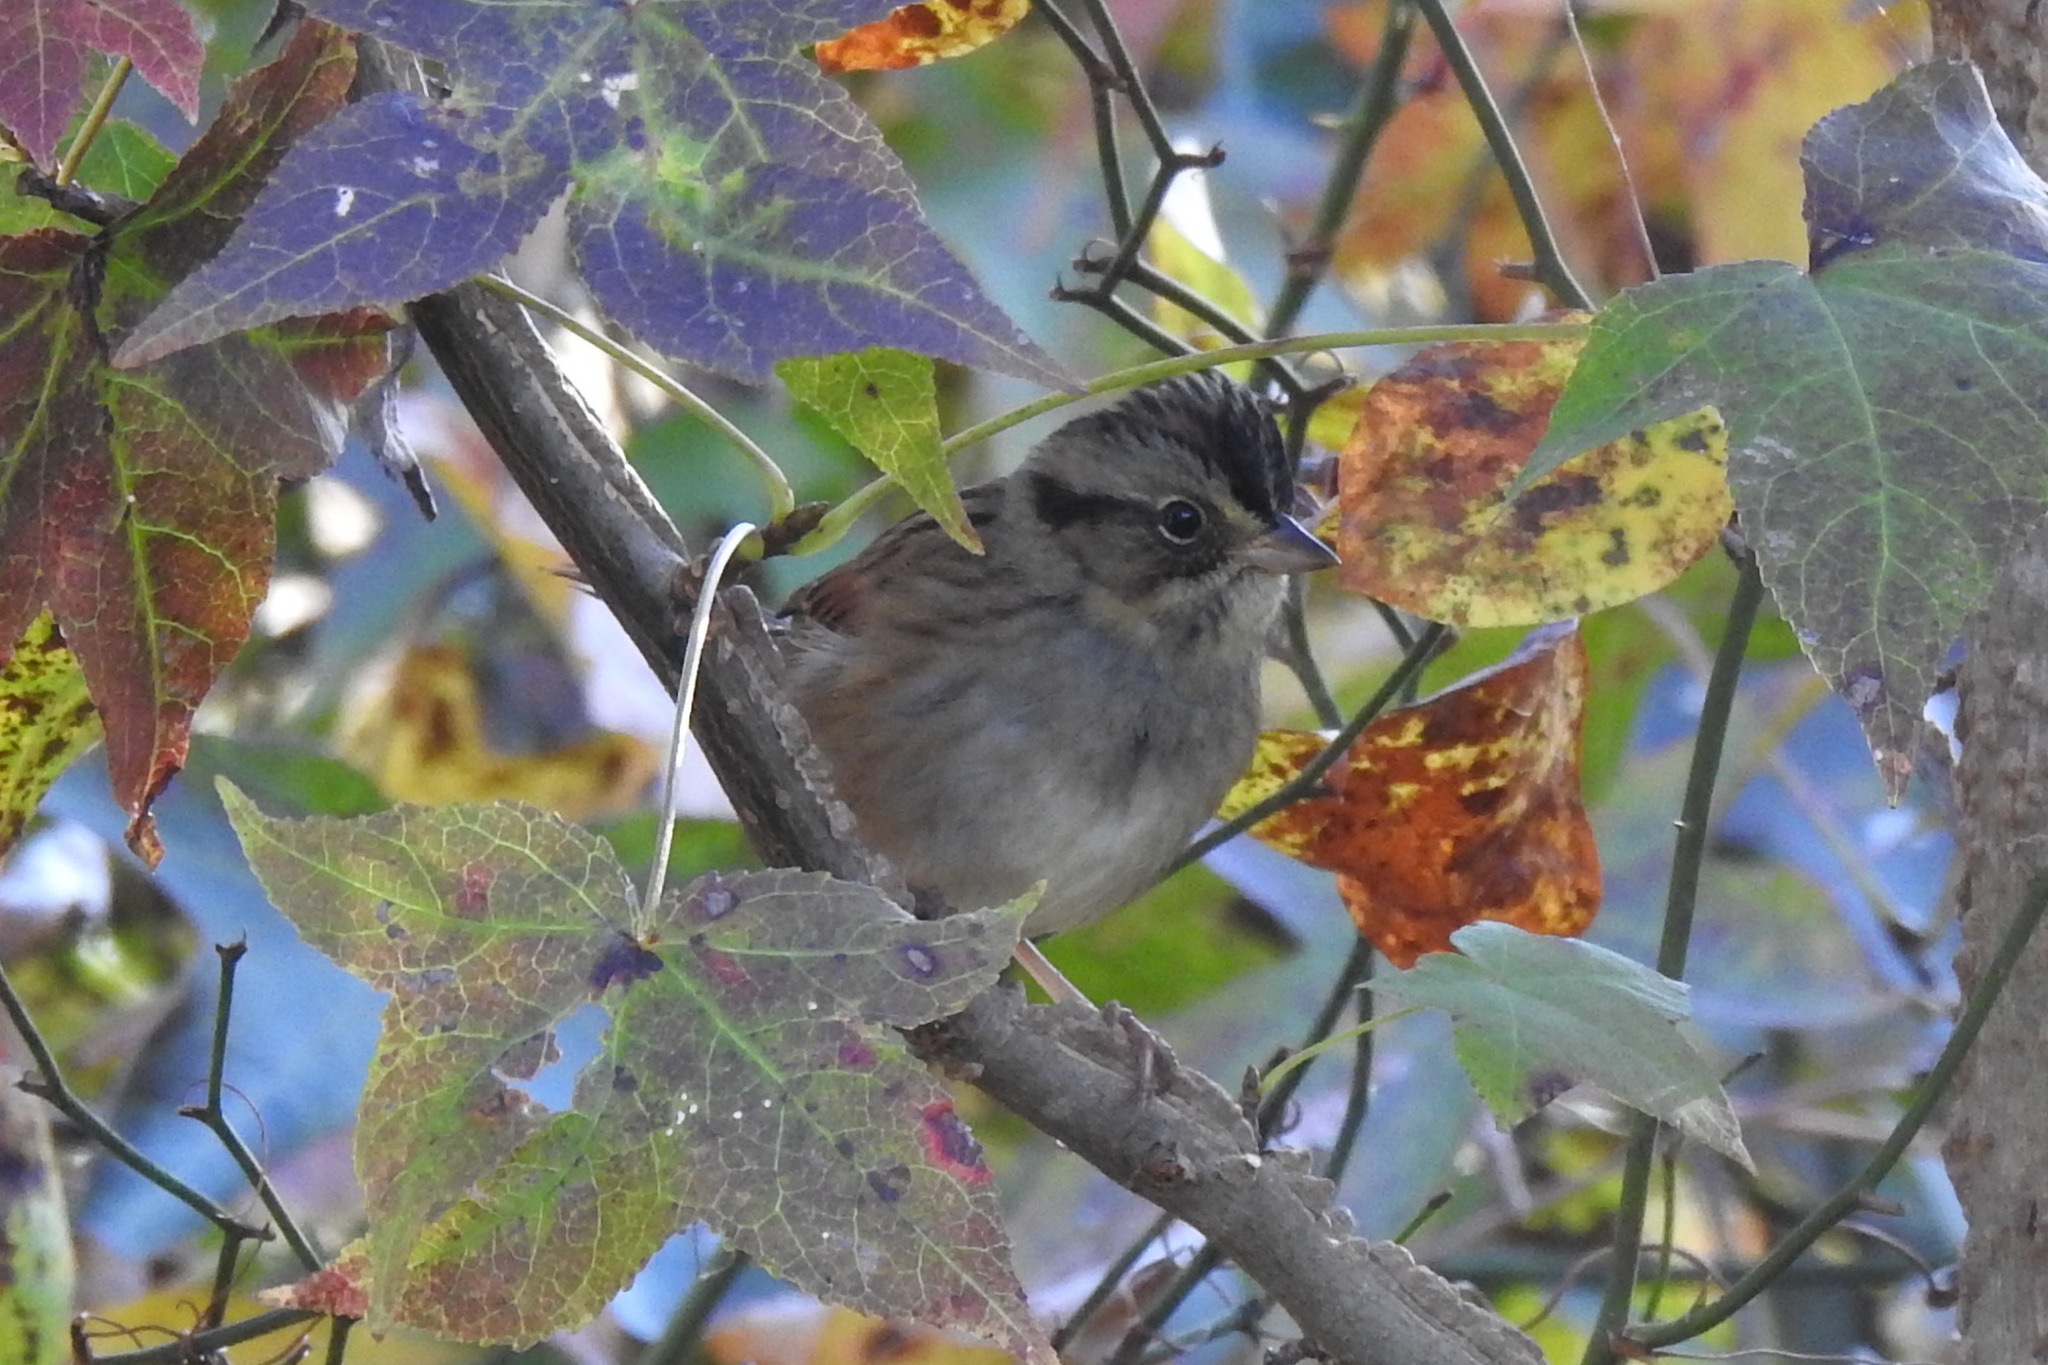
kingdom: Animalia
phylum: Chordata
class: Aves
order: Passeriformes
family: Passerellidae
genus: Melospiza
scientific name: Melospiza georgiana
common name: Swamp sparrow
